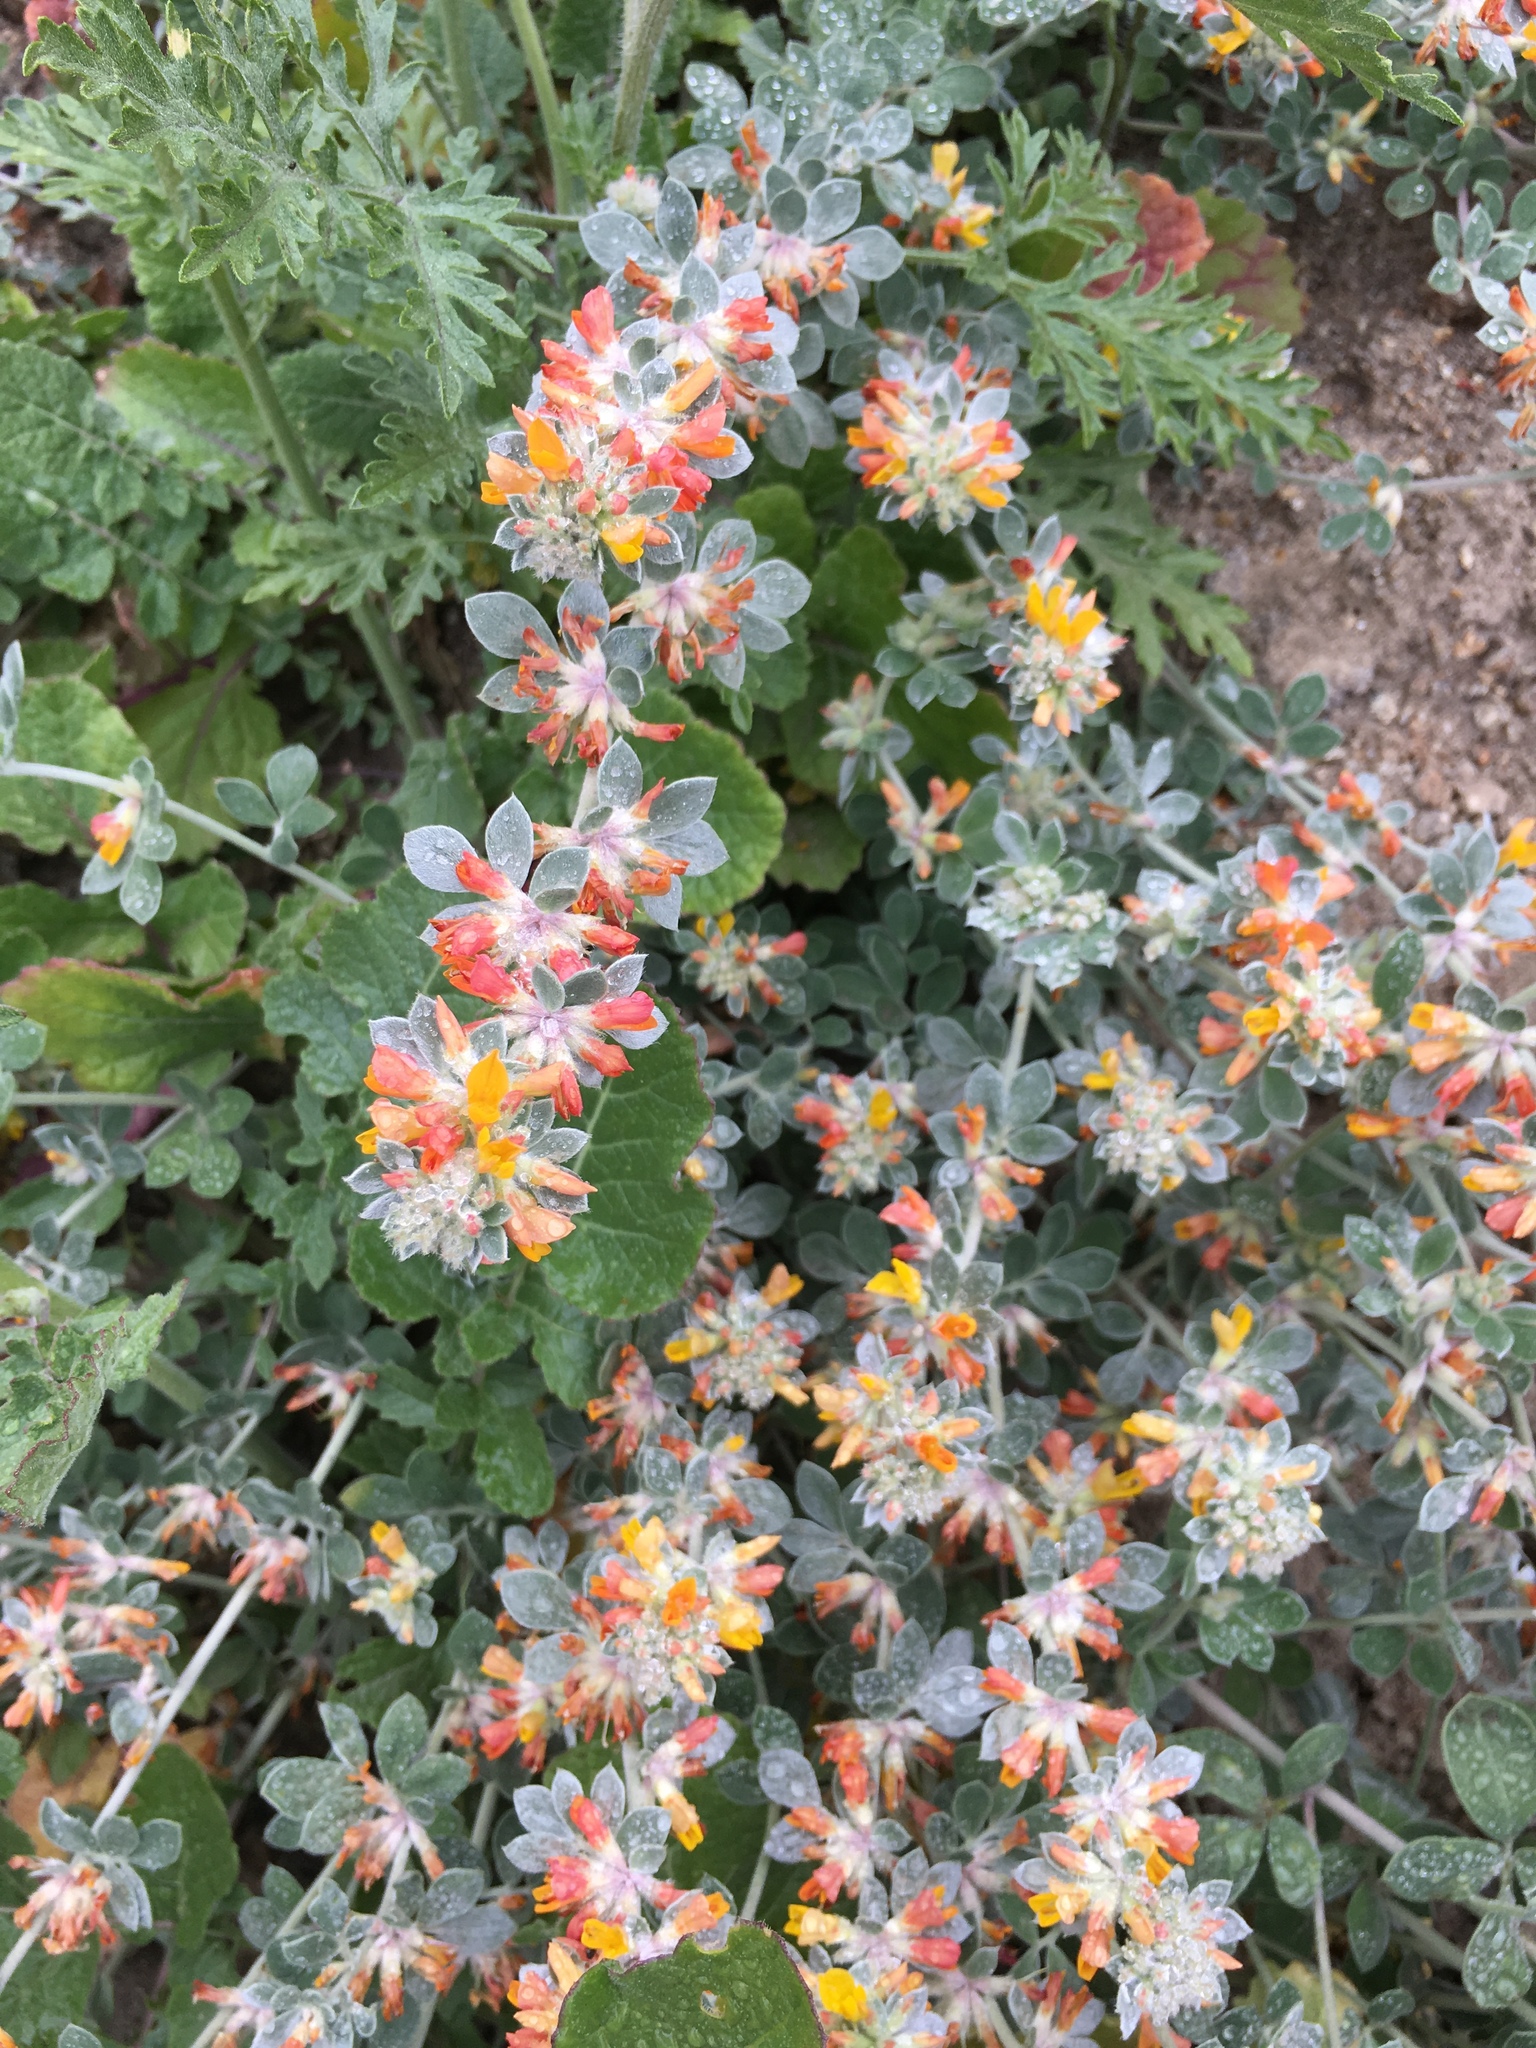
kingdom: Plantae
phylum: Tracheophyta
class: Magnoliopsida
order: Fabales
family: Fabaceae
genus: Acmispon
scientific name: Acmispon argophyllus
